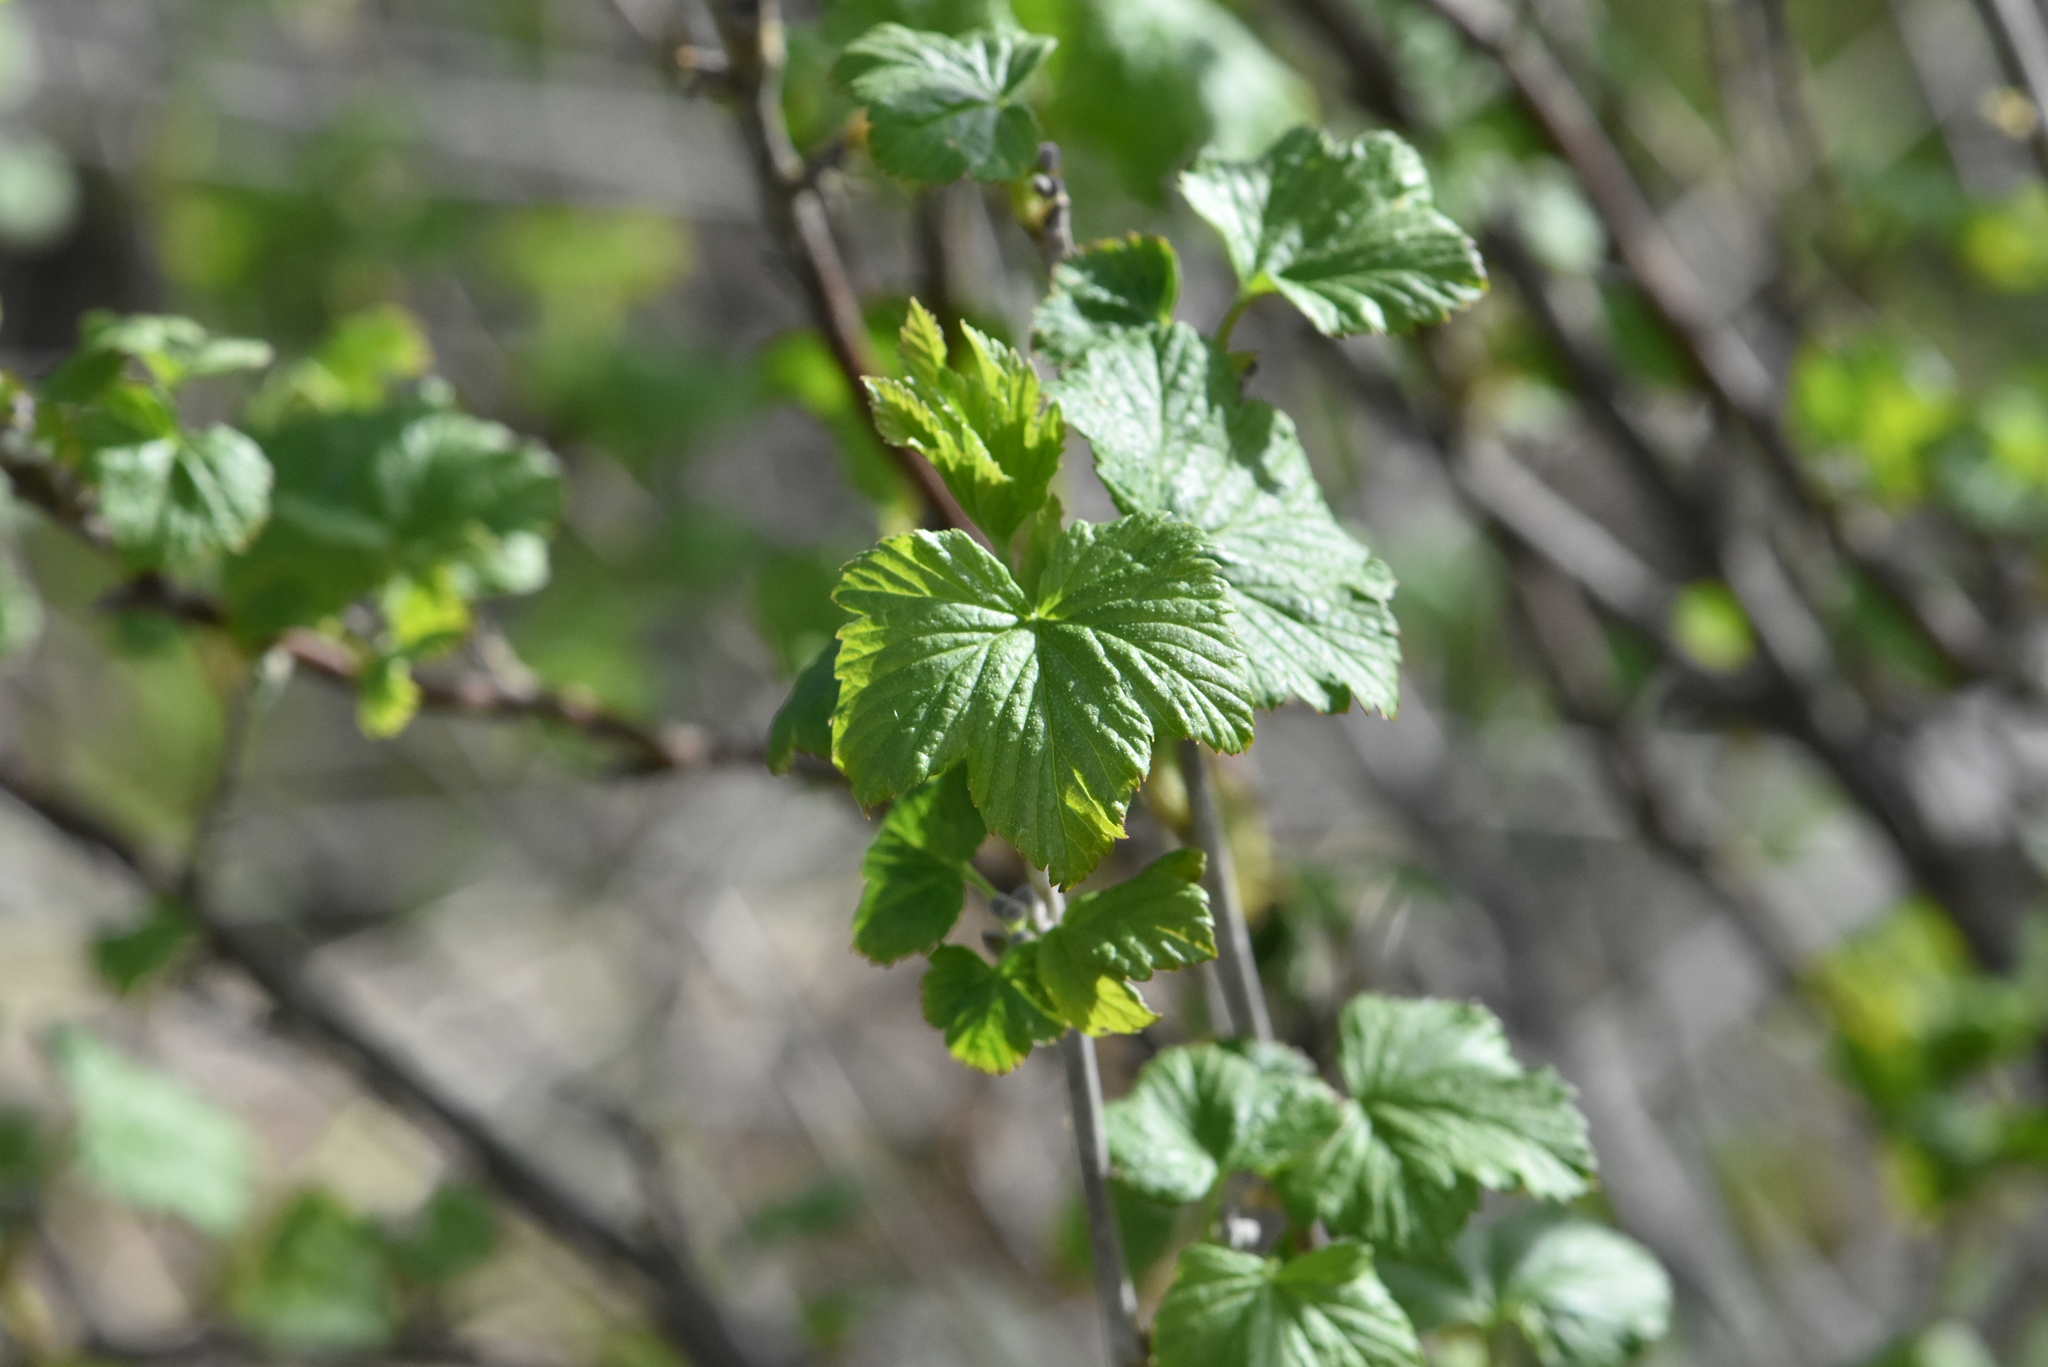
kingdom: Plantae
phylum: Tracheophyta
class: Magnoliopsida
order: Saxifragales
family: Grossulariaceae
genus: Ribes
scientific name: Ribes nigrum
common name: Black currant
